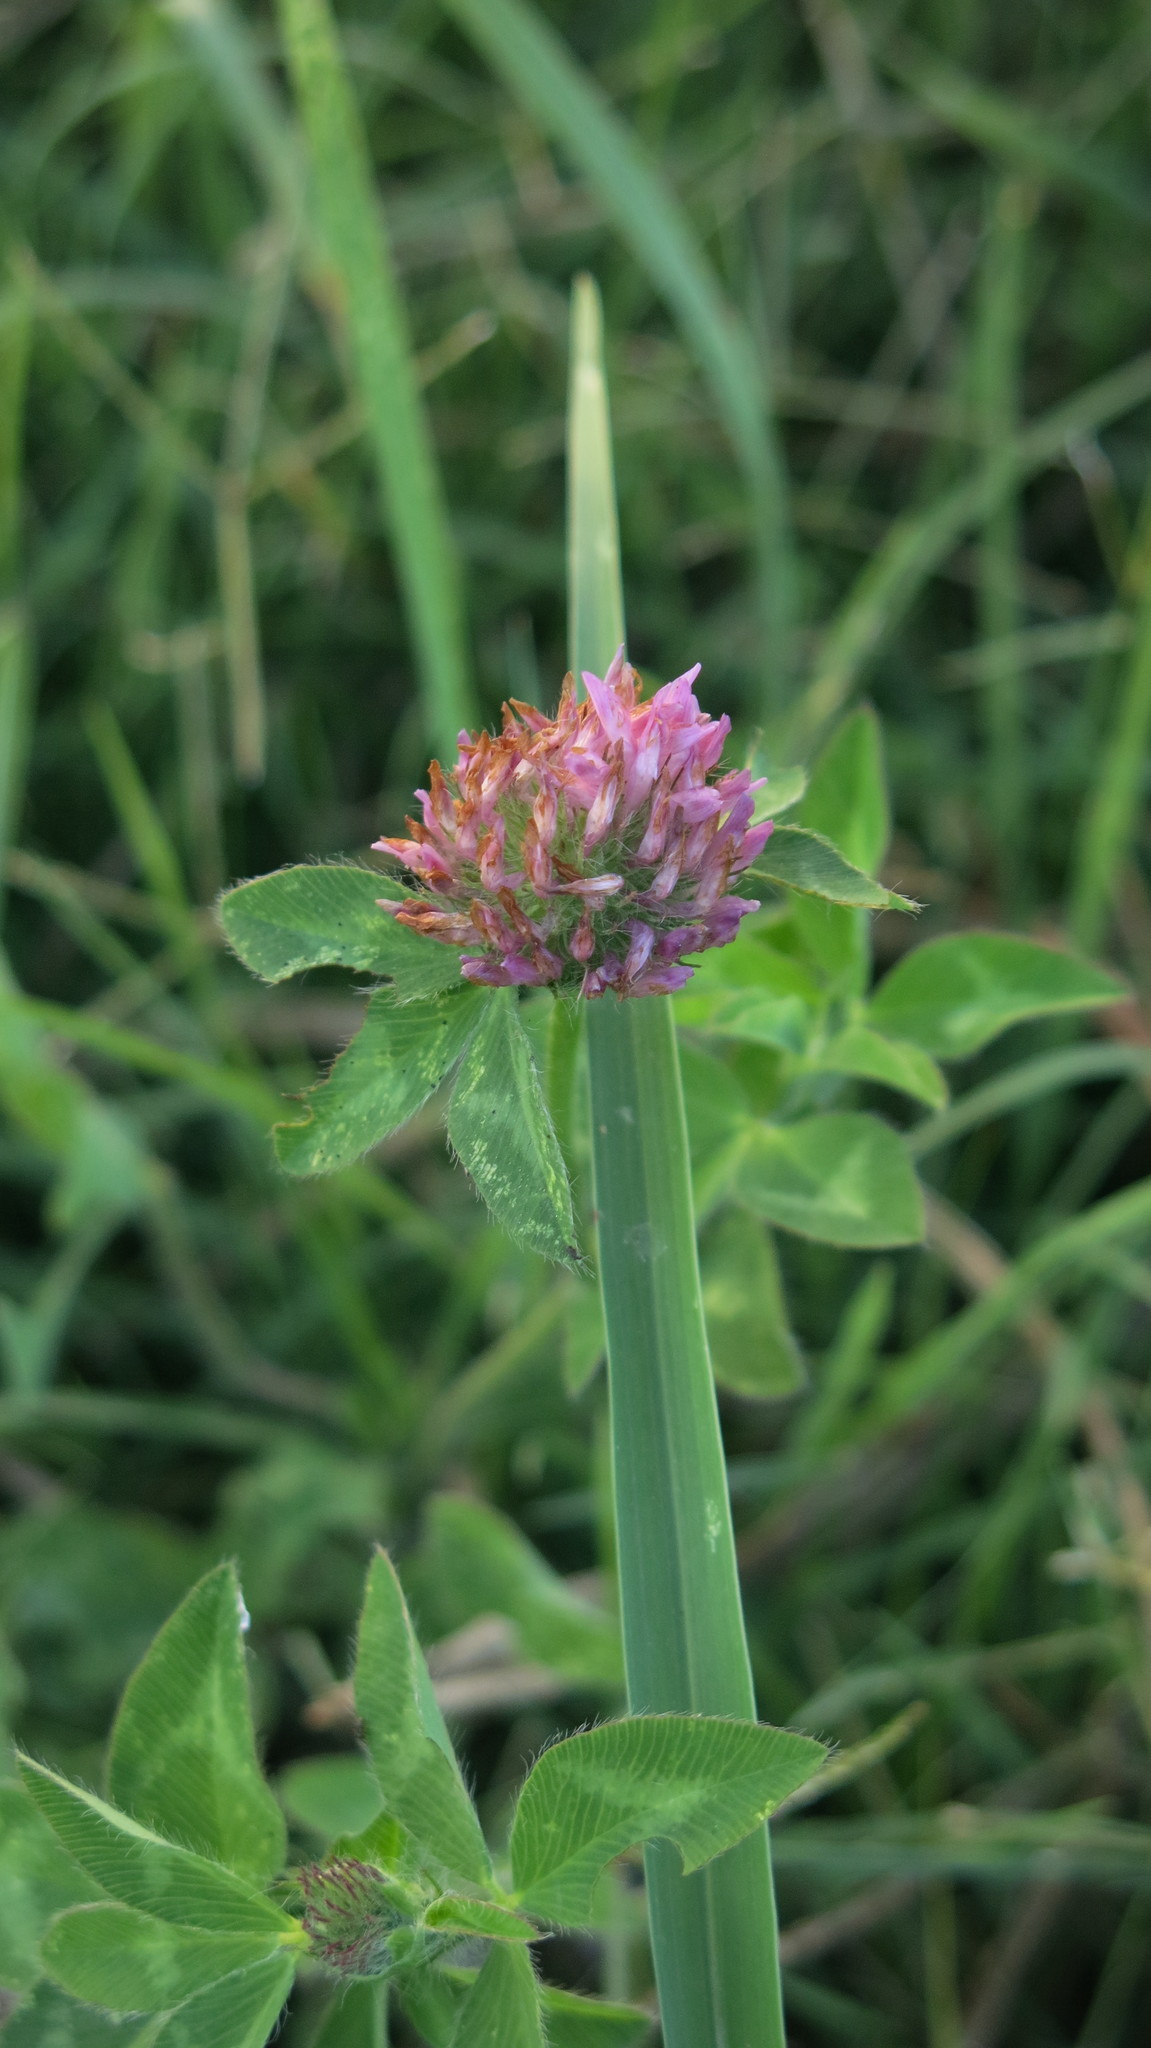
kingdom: Plantae
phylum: Tracheophyta
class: Magnoliopsida
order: Fabales
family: Fabaceae
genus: Trifolium
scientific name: Trifolium pratense
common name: Red clover
